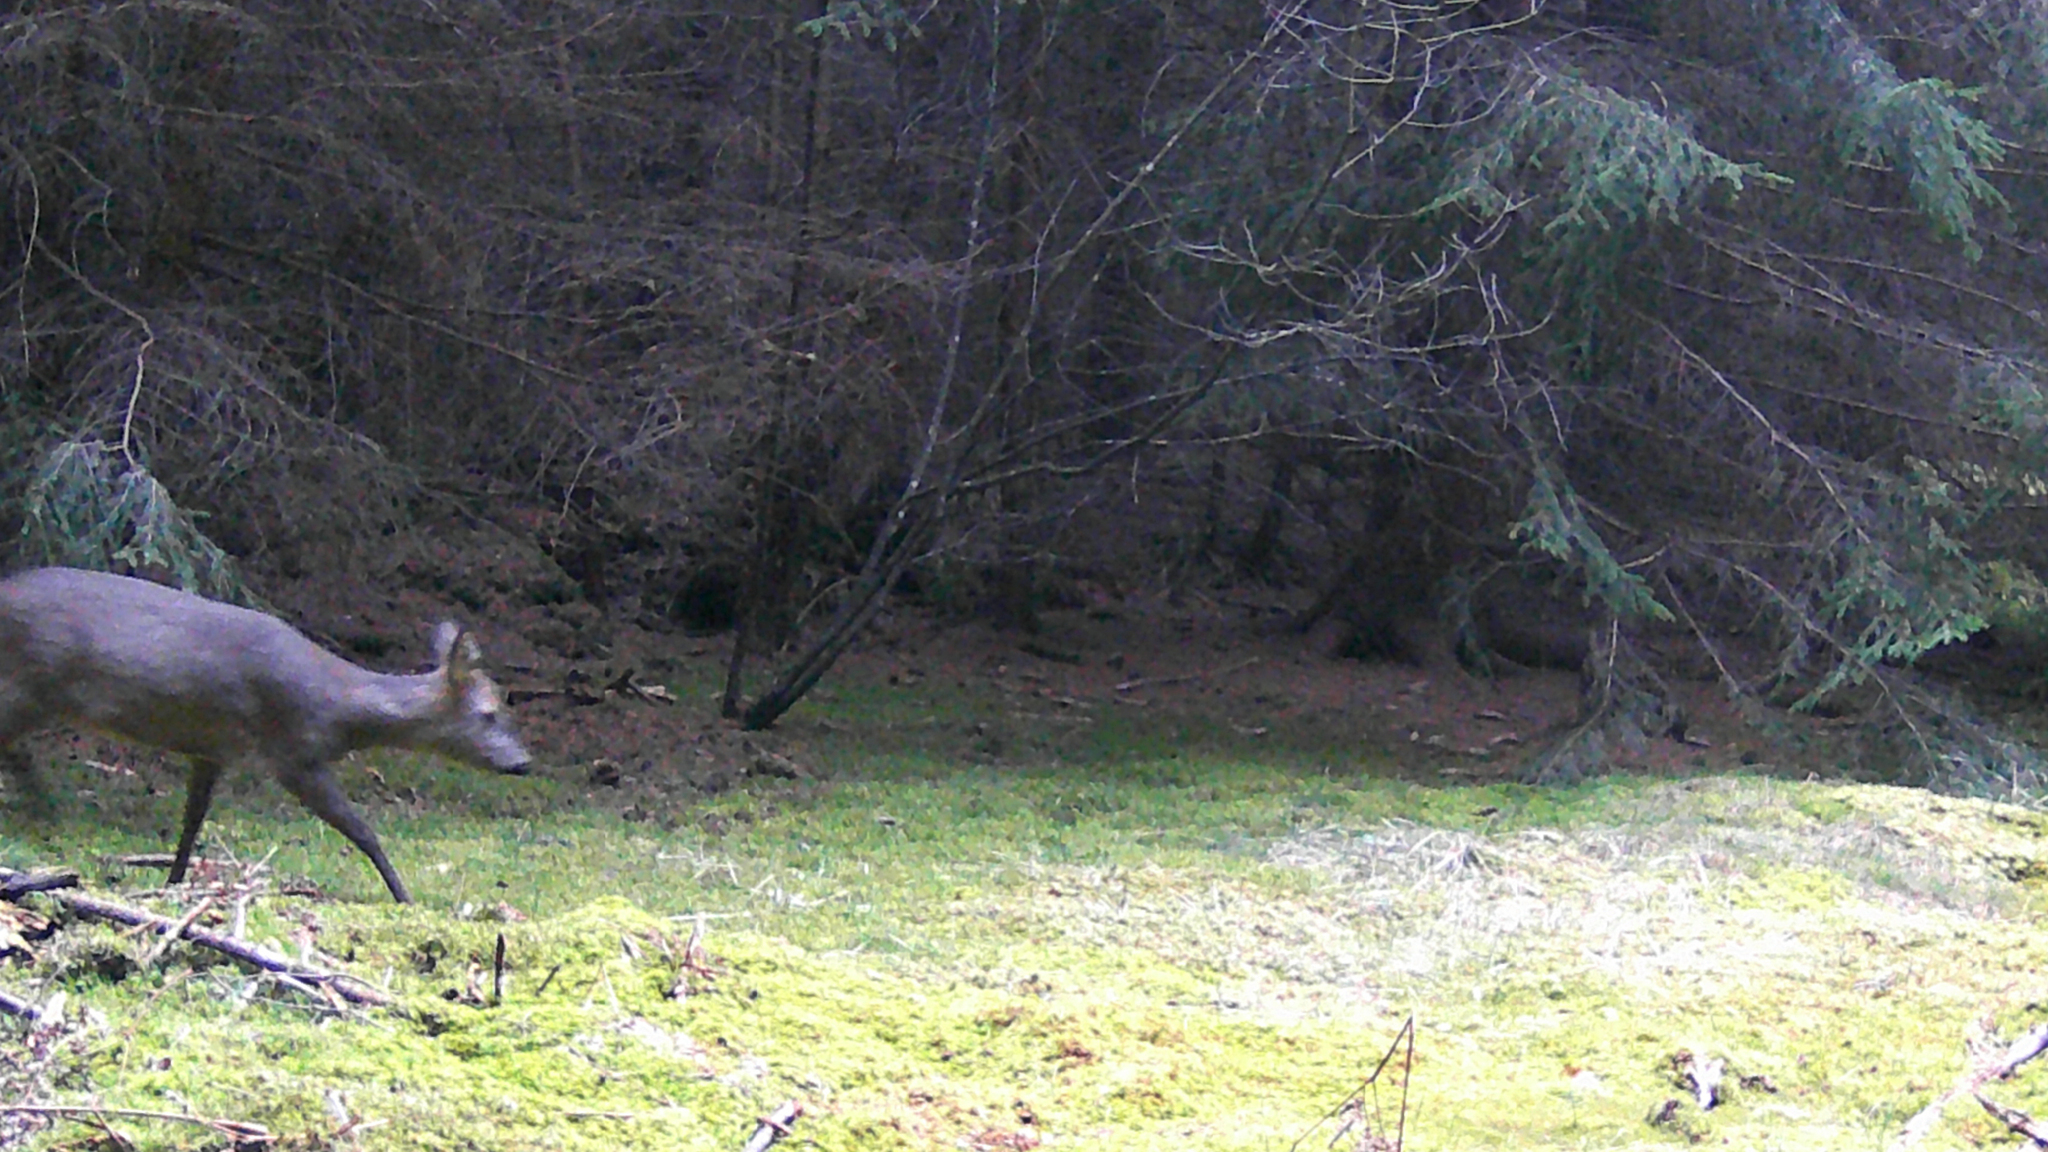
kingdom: Animalia
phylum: Chordata
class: Mammalia
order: Artiodactyla
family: Cervidae
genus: Capreolus
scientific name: Capreolus capreolus
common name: Western roe deer
